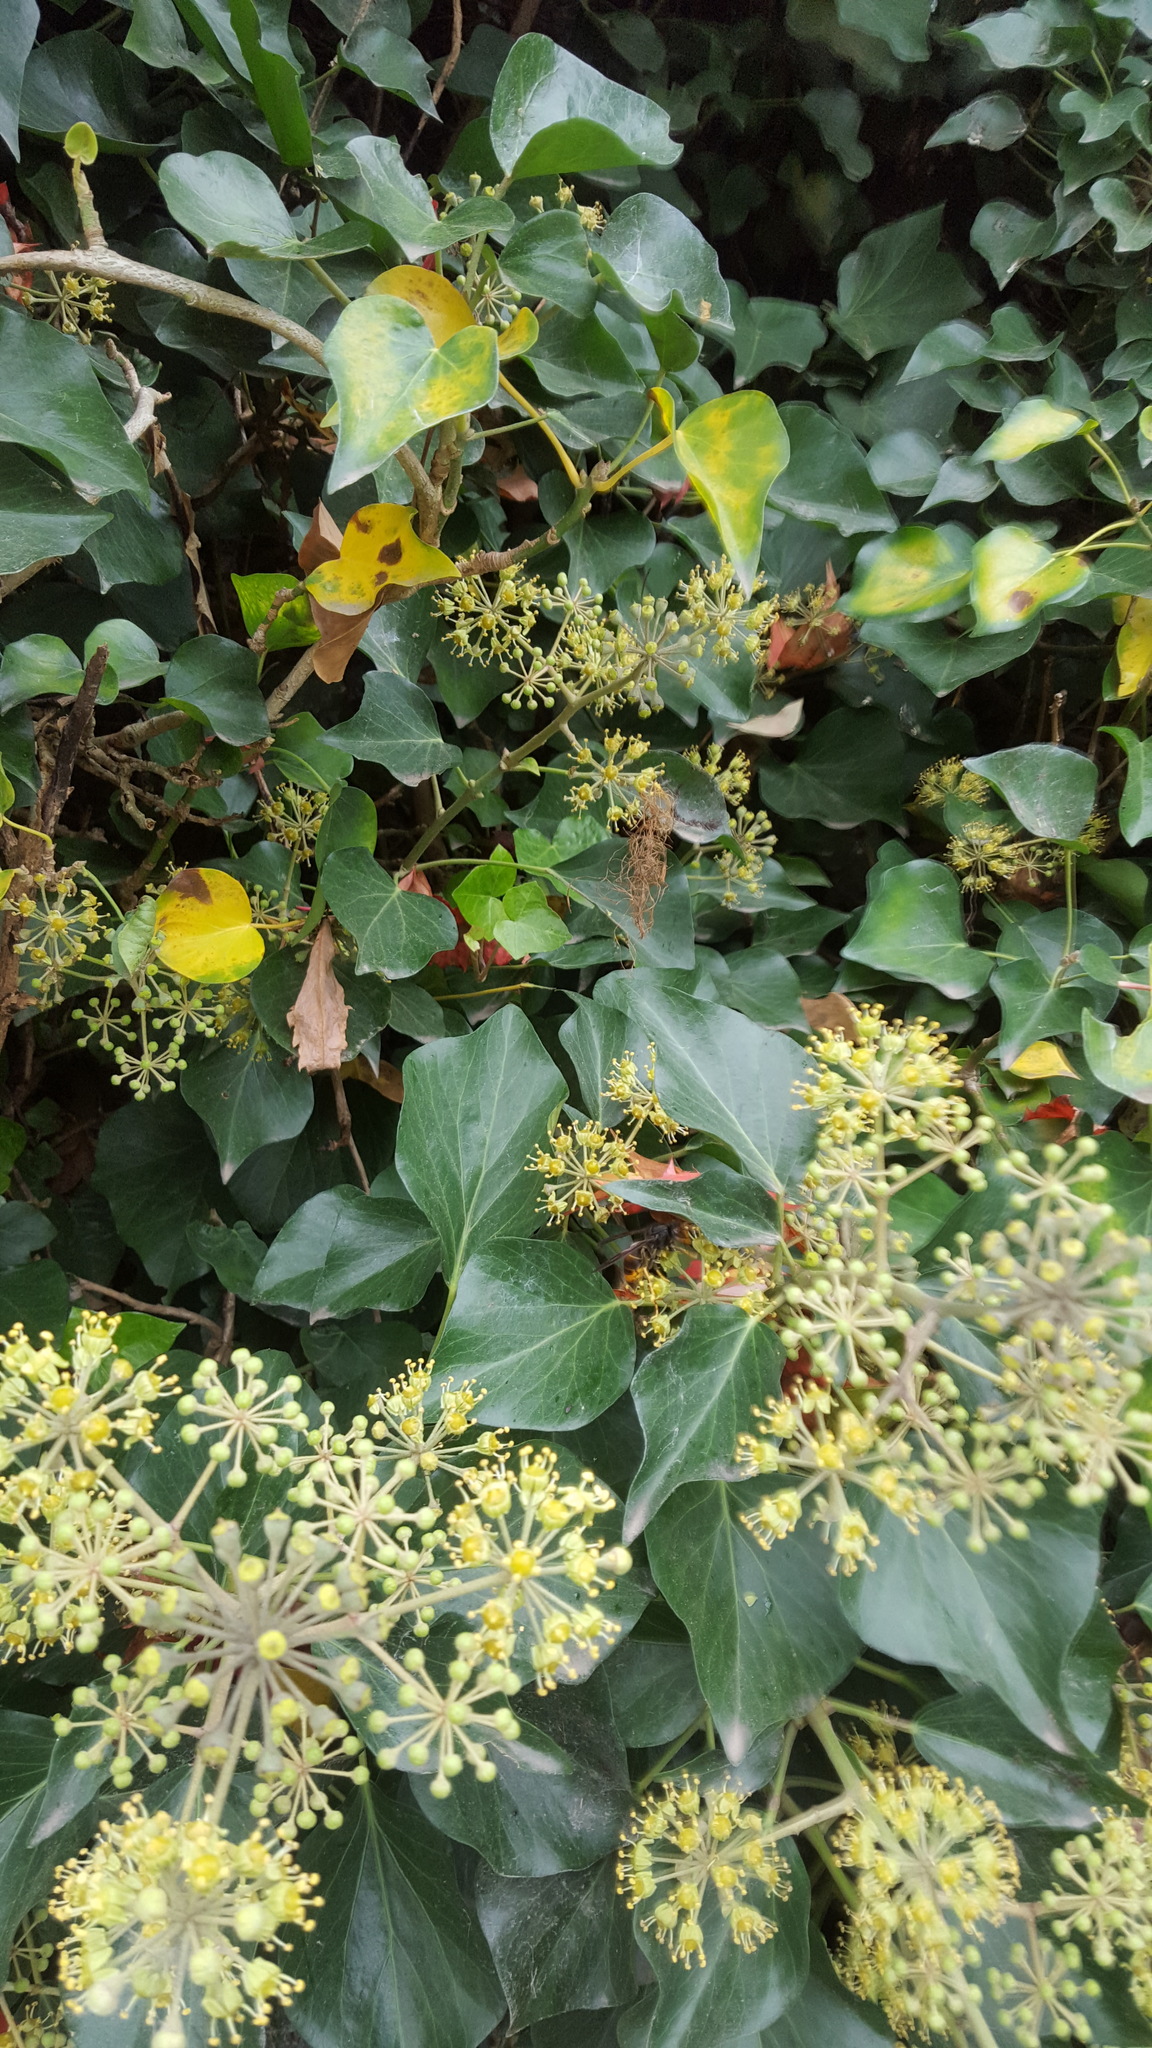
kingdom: Animalia
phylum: Arthropoda
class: Insecta
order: Hymenoptera
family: Vespidae
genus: Vespa
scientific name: Vespa velutina
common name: Asian hornet
